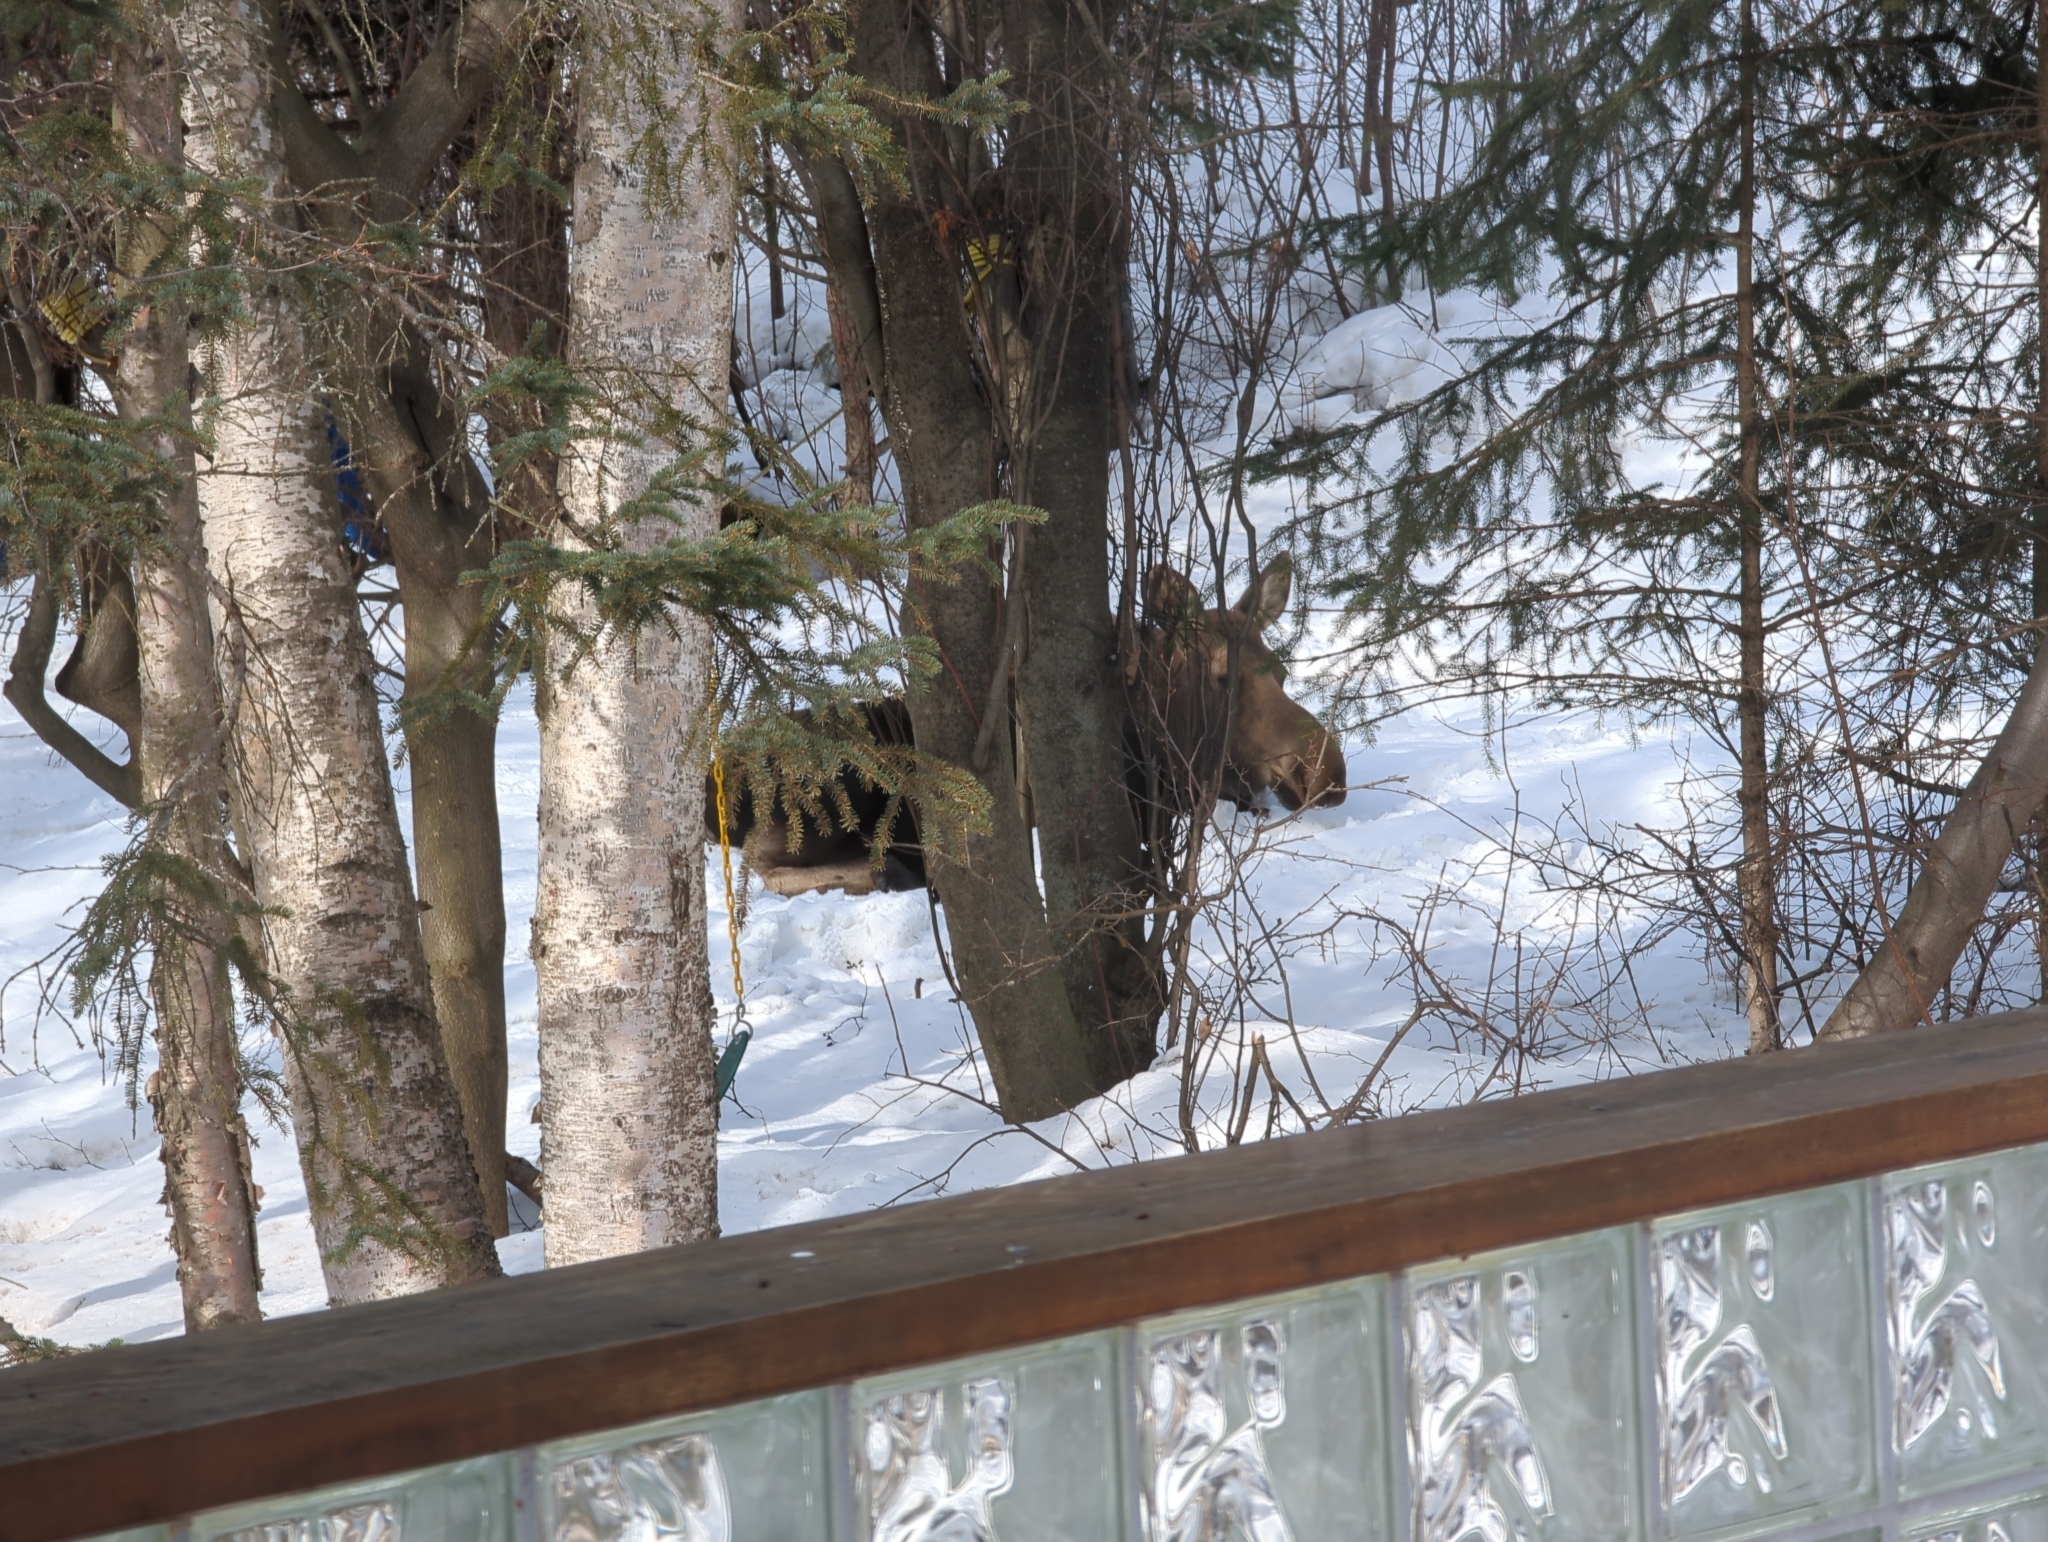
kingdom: Animalia
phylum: Chordata
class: Mammalia
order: Artiodactyla
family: Cervidae
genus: Alces
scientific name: Alces alces
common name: Moose
